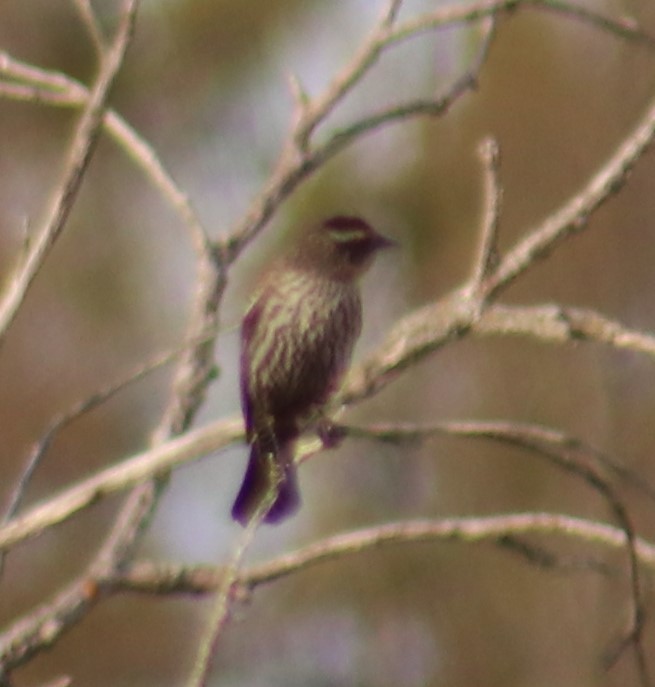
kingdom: Animalia
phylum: Chordata
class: Aves
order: Passeriformes
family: Icteridae
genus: Agelaius
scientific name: Agelaius phoeniceus
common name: Red-winged blackbird
